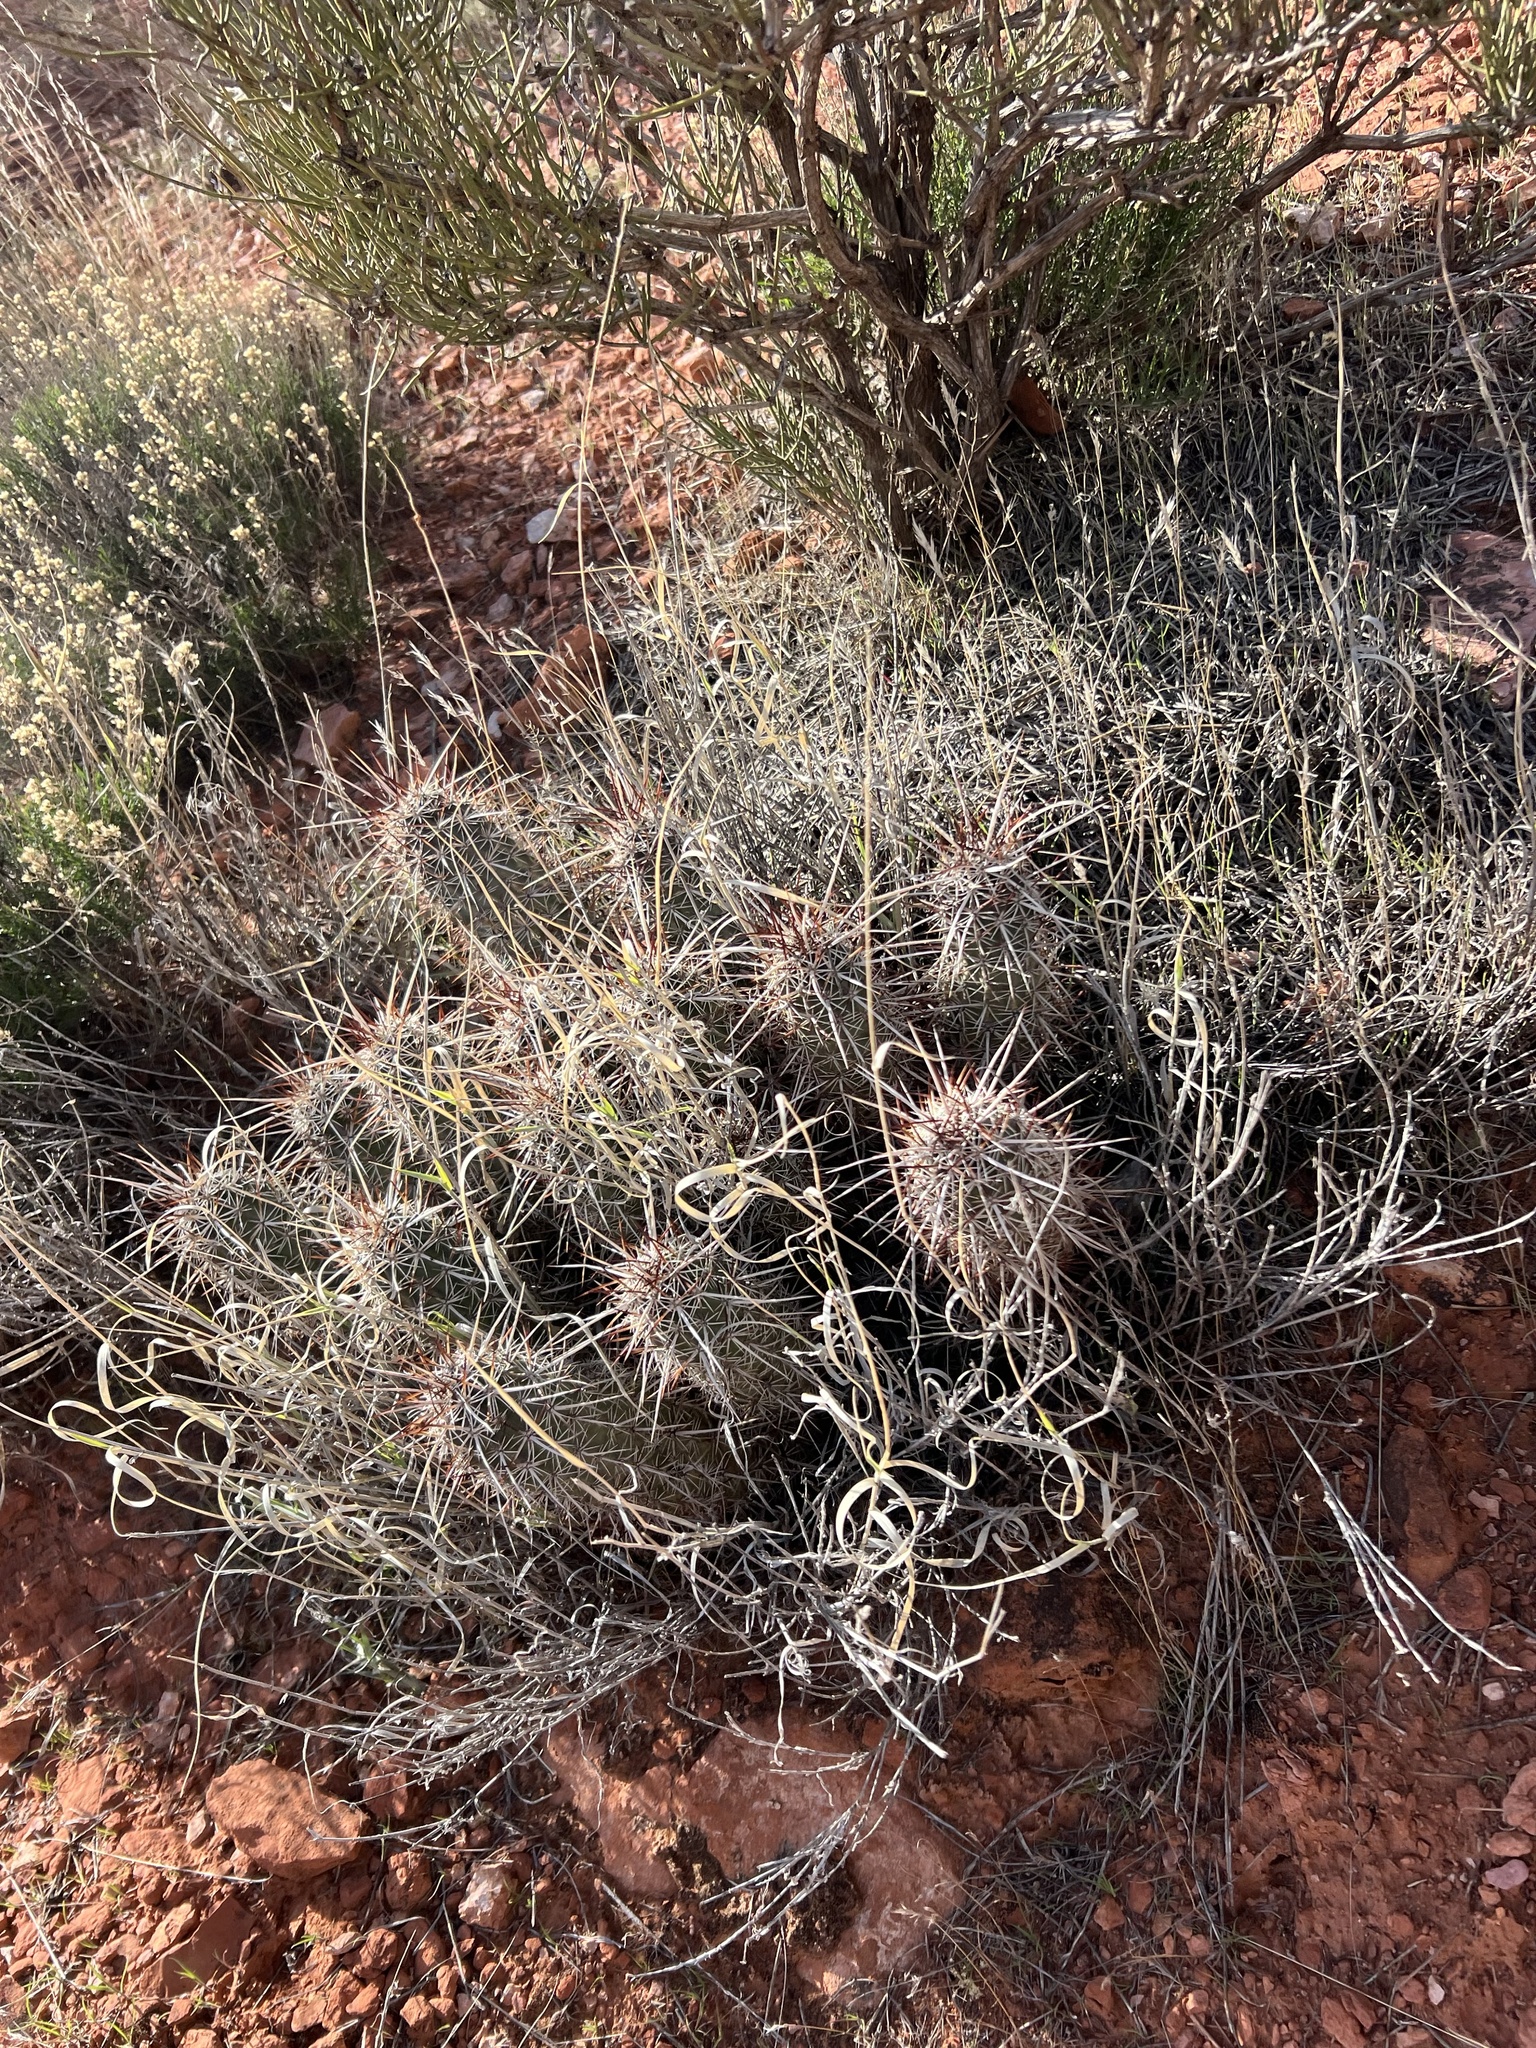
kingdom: Plantae
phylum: Tracheophyta
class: Magnoliopsida
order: Caryophyllales
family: Cactaceae
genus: Echinocereus
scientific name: Echinocereus engelmannii
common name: Engelmann's hedgehog cactus
